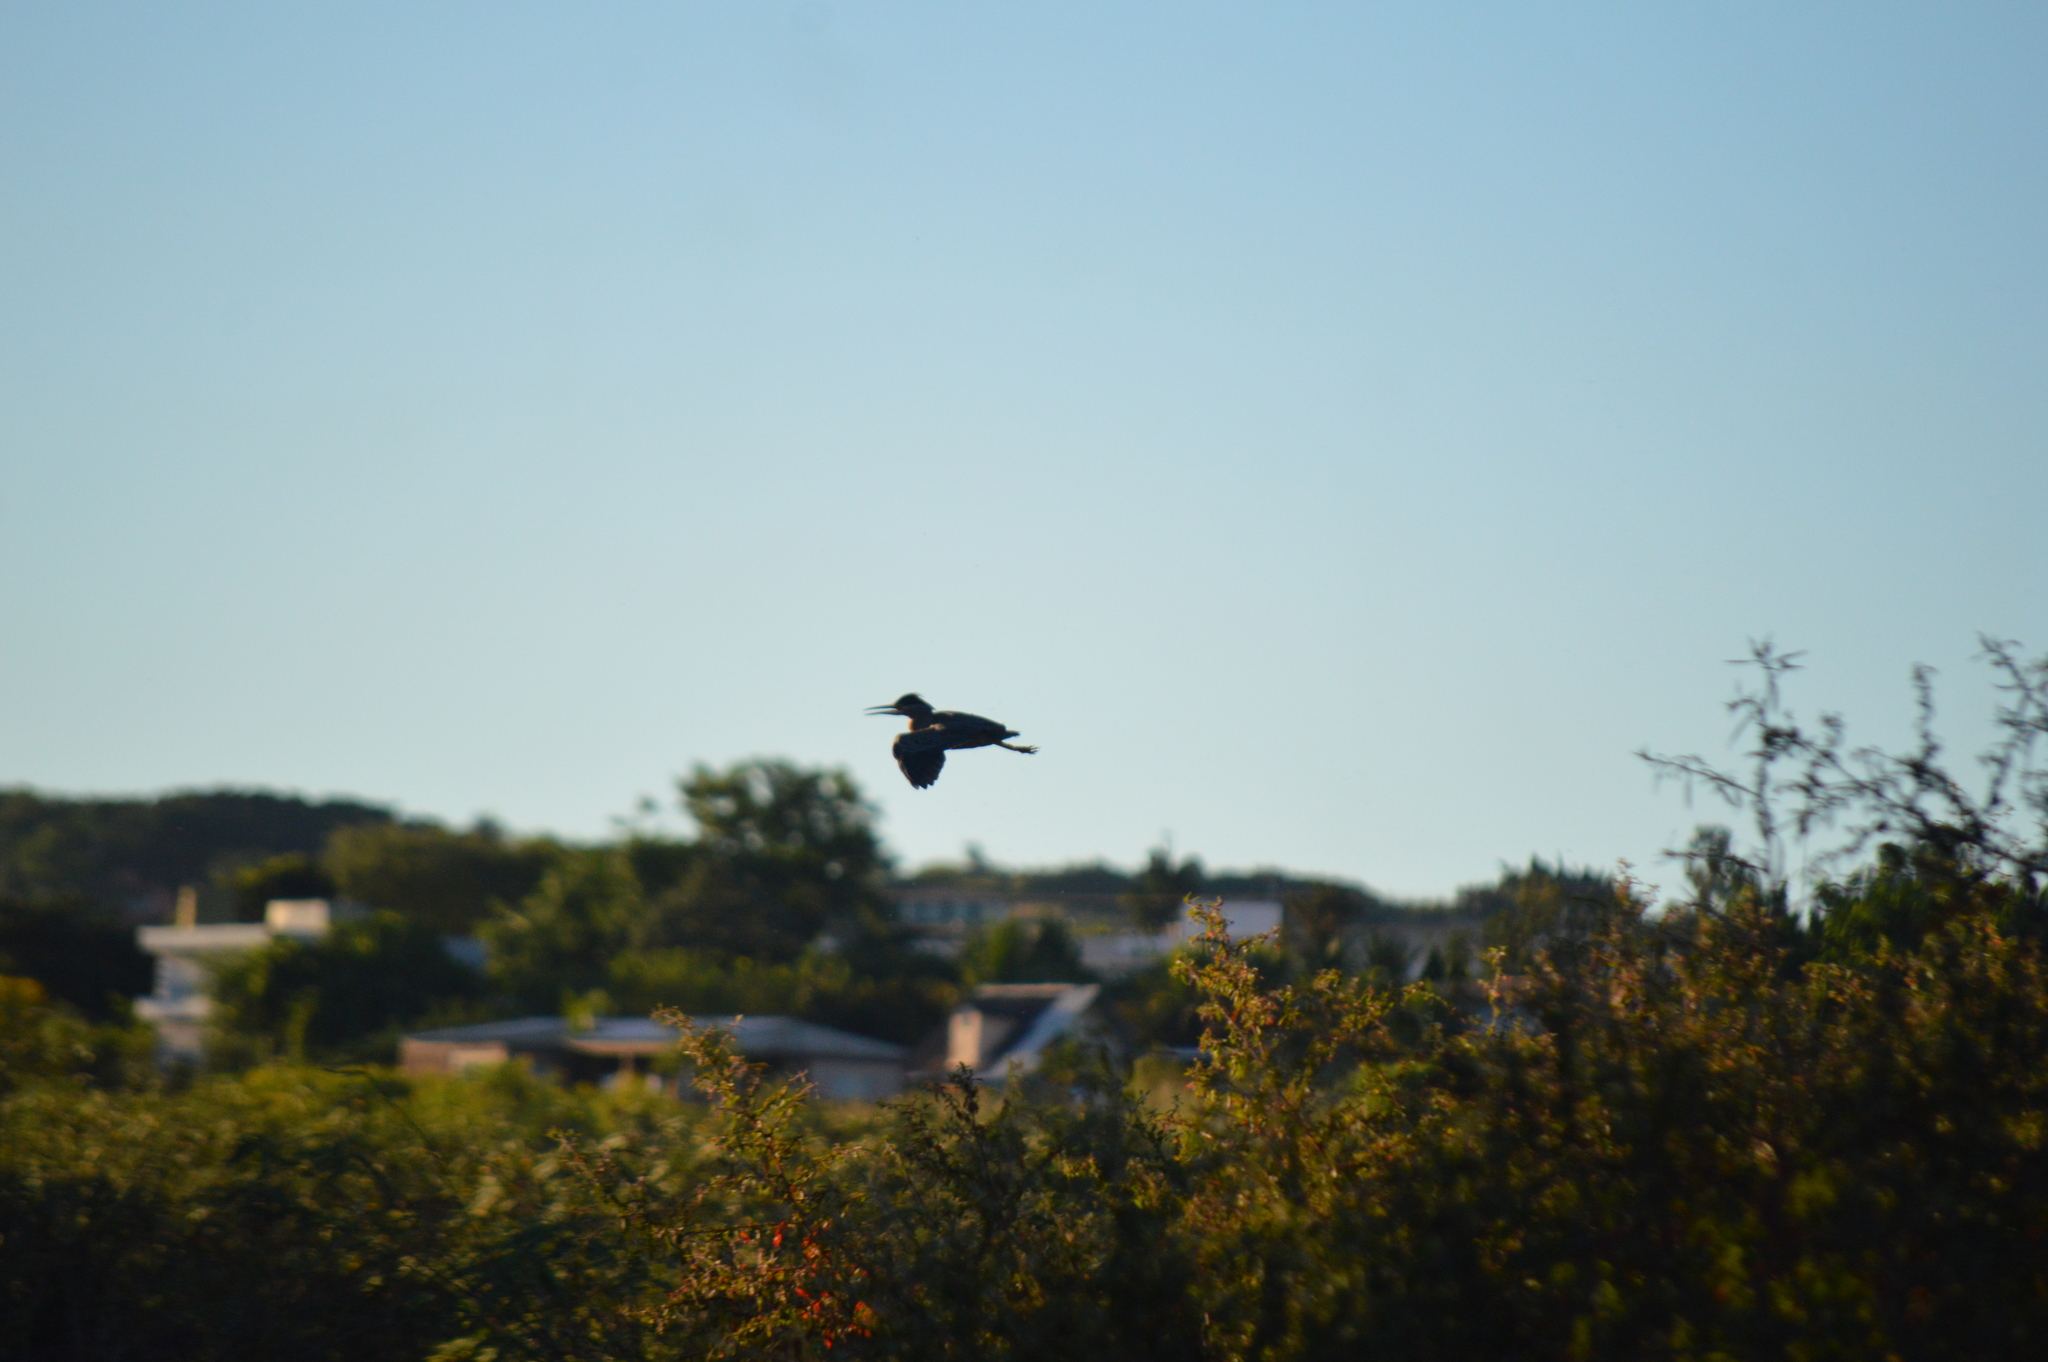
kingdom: Animalia
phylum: Chordata
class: Aves
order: Pelecaniformes
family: Ardeidae
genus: Butorides
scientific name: Butorides striata
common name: Striated heron
